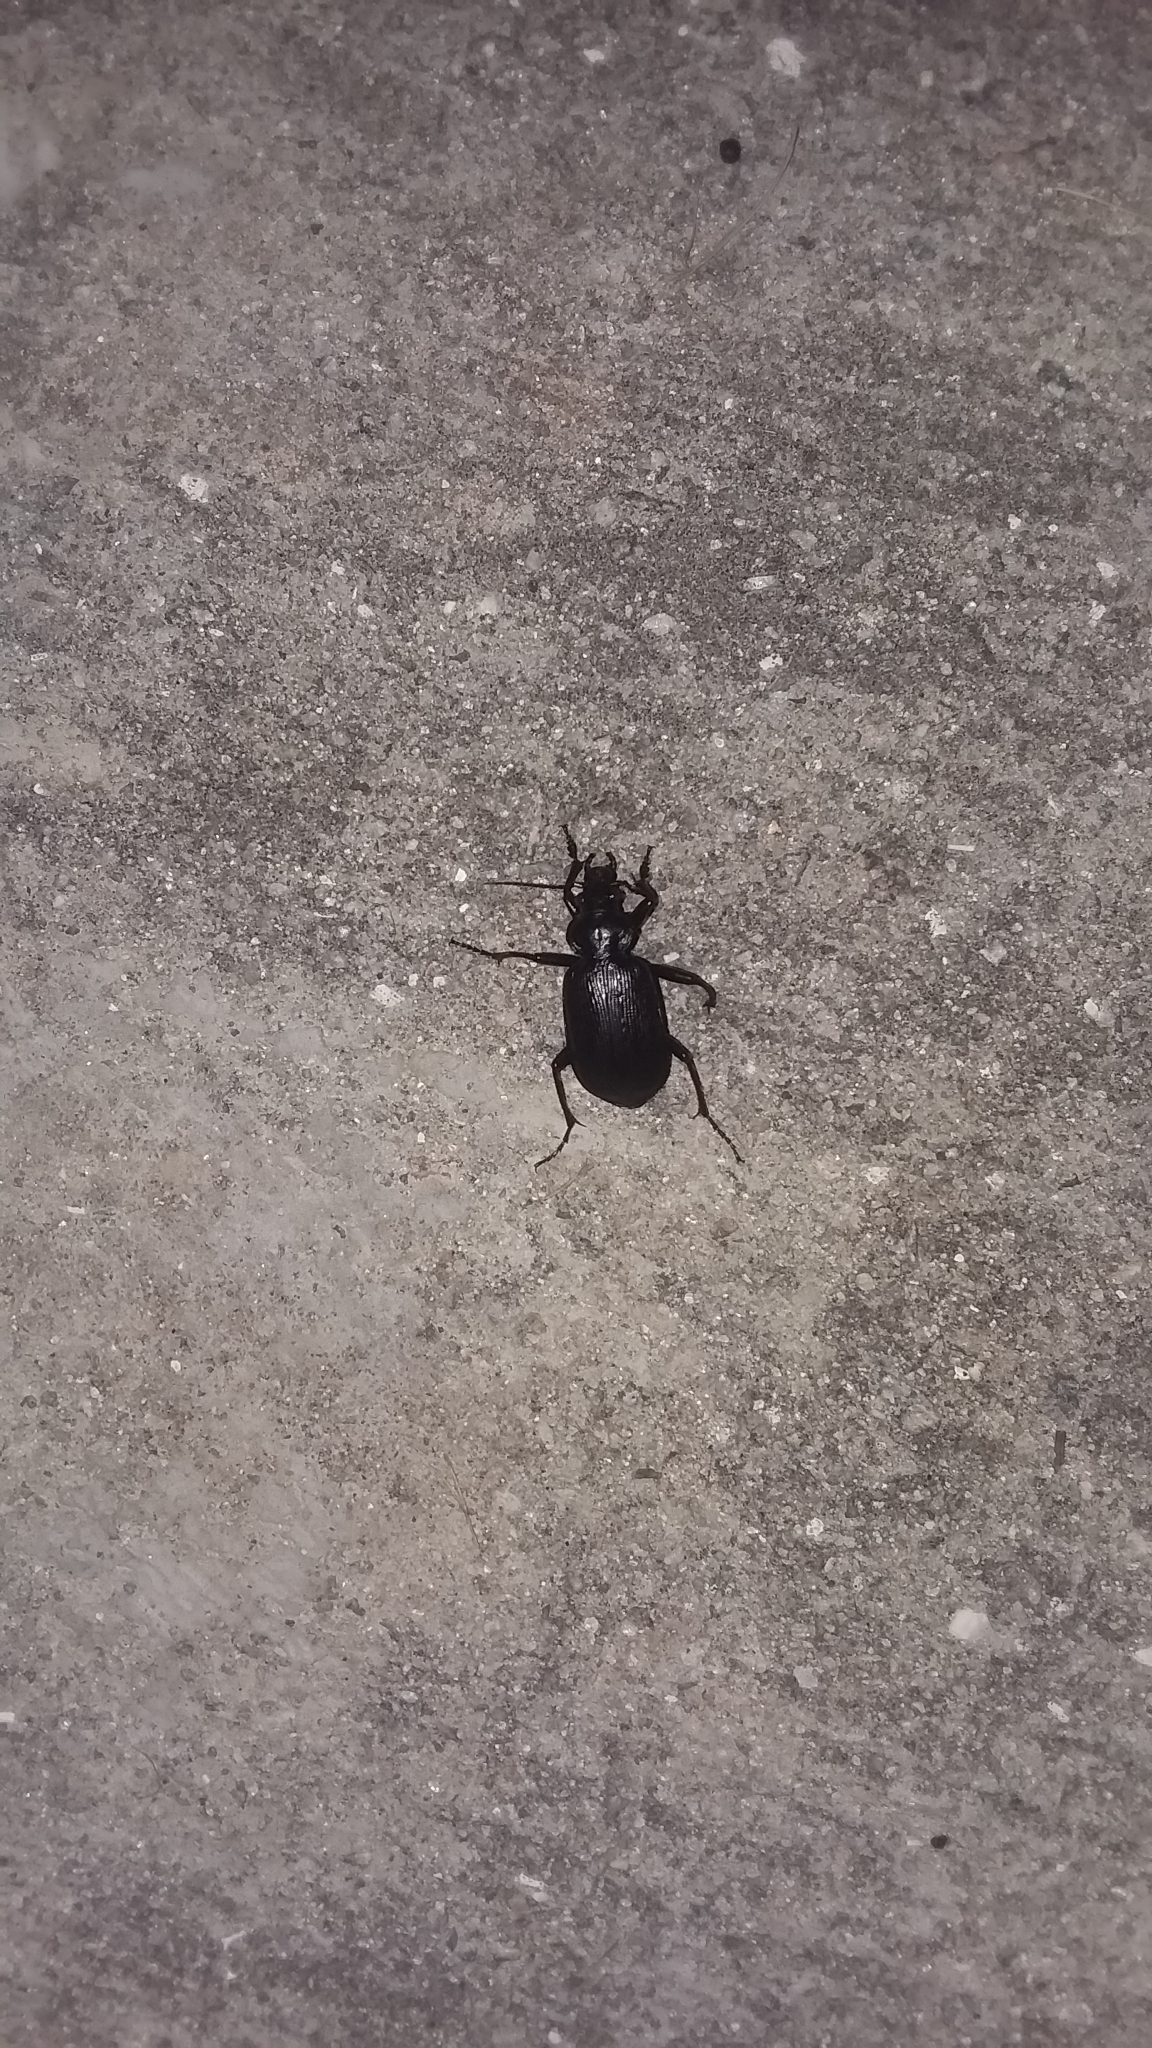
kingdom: Animalia
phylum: Arthropoda
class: Insecta
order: Coleoptera
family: Carabidae
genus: Calosoma
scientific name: Calosoma sayi
